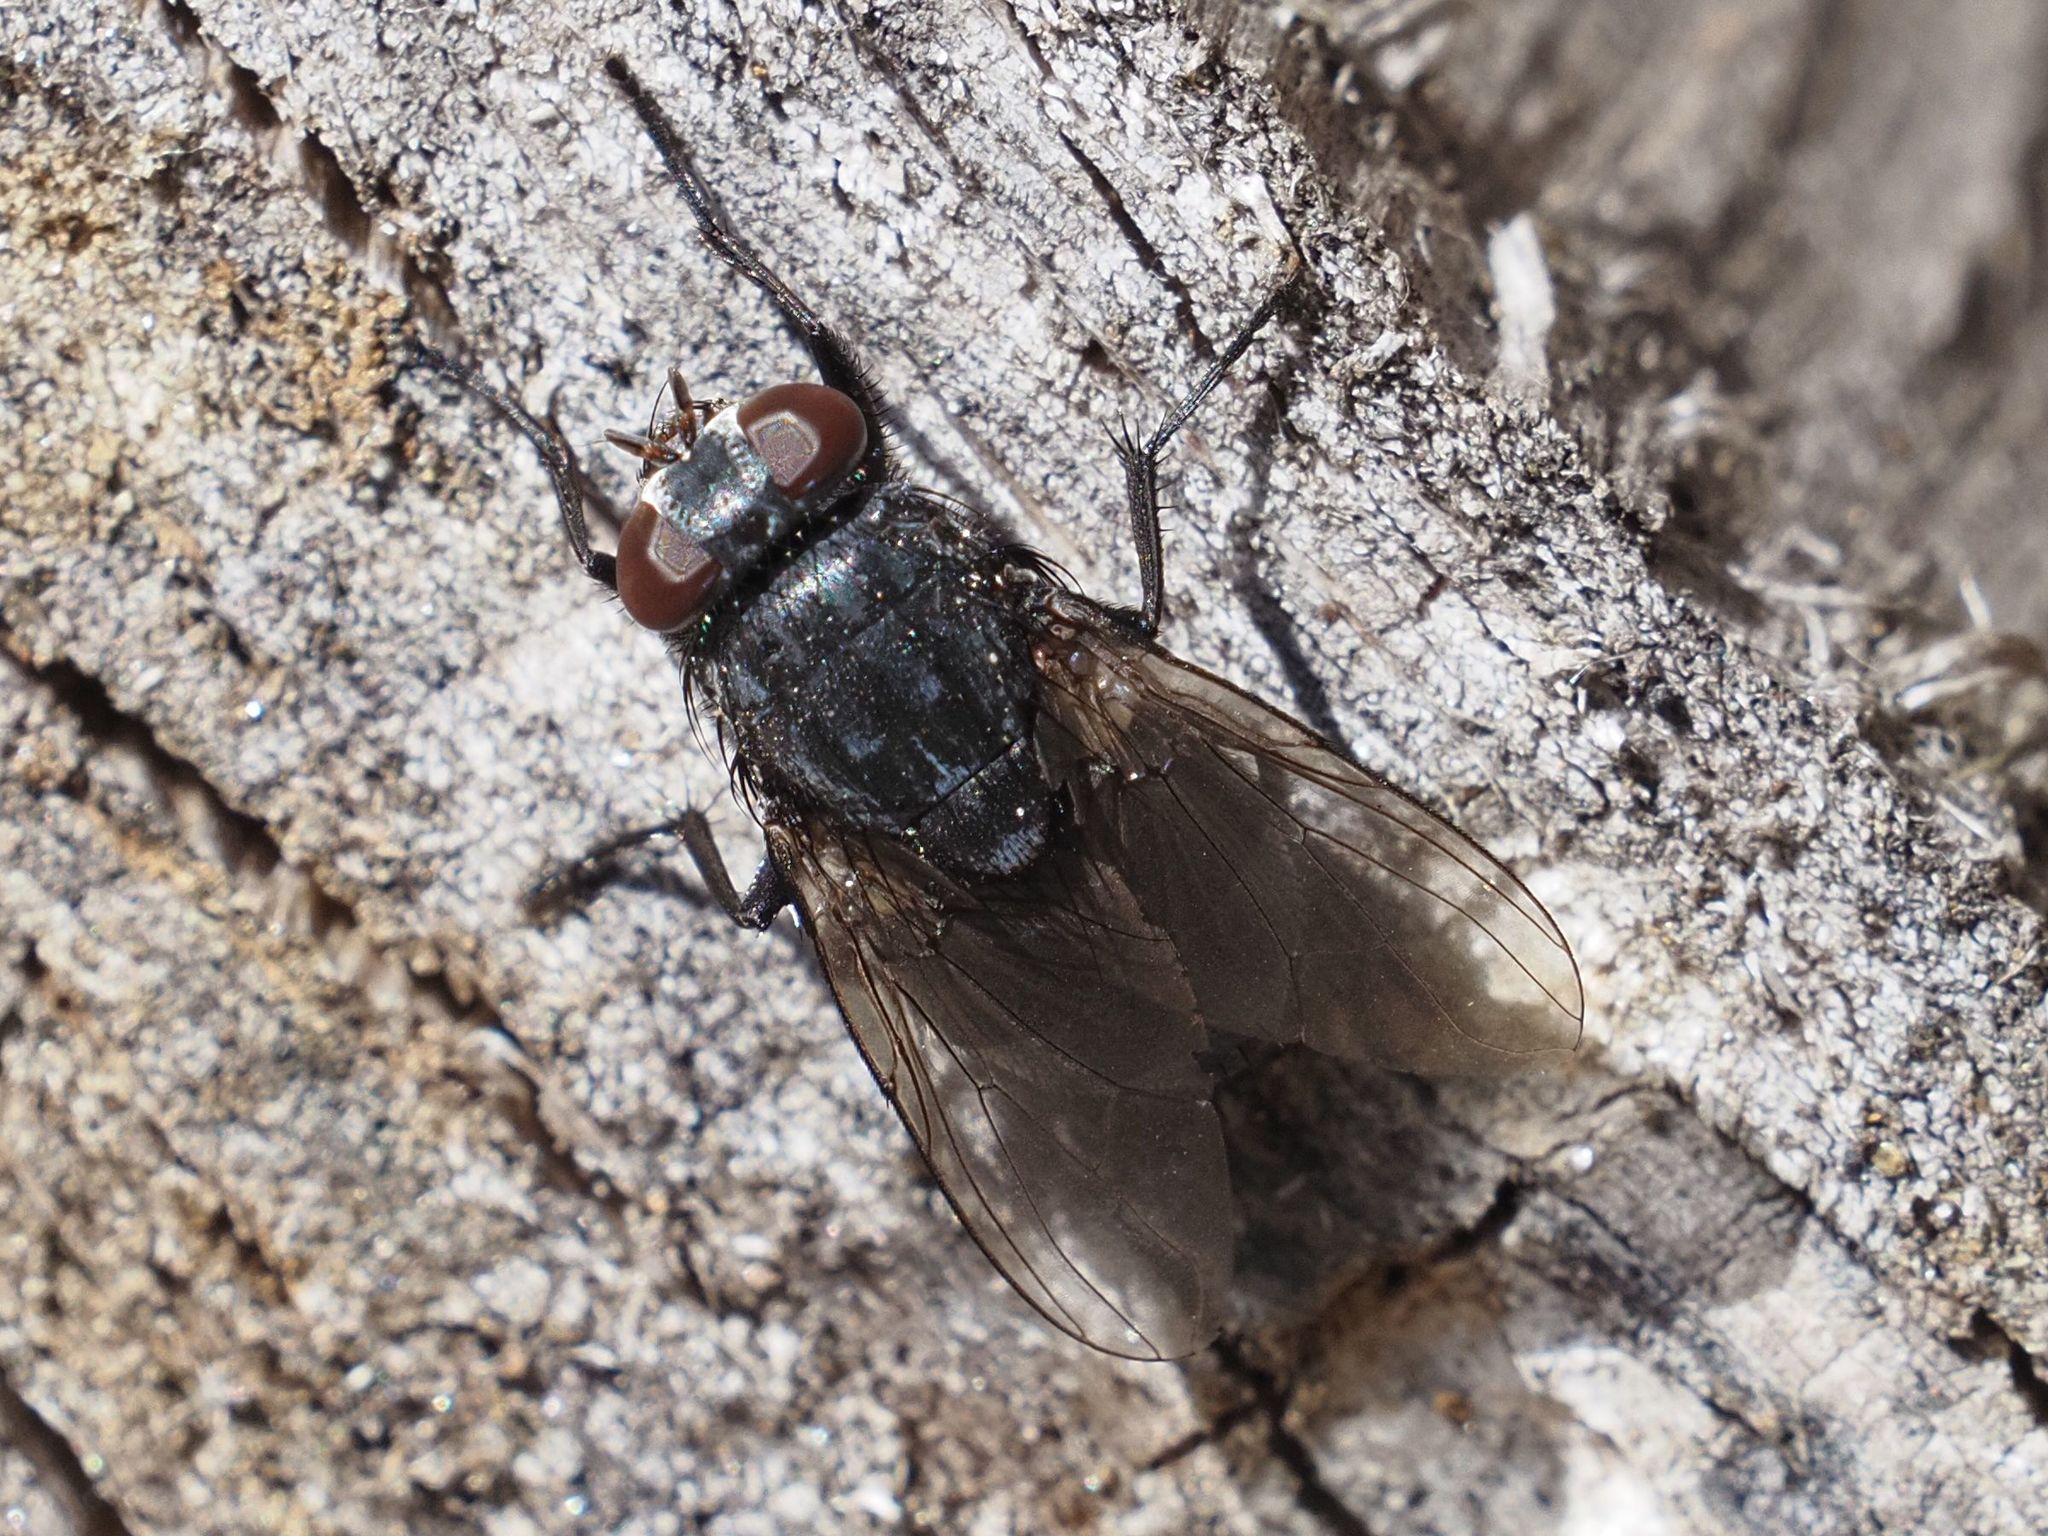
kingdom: Animalia
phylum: Arthropoda
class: Insecta
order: Diptera
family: Muscidae
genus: Muscina
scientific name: Muscina pascuorum
